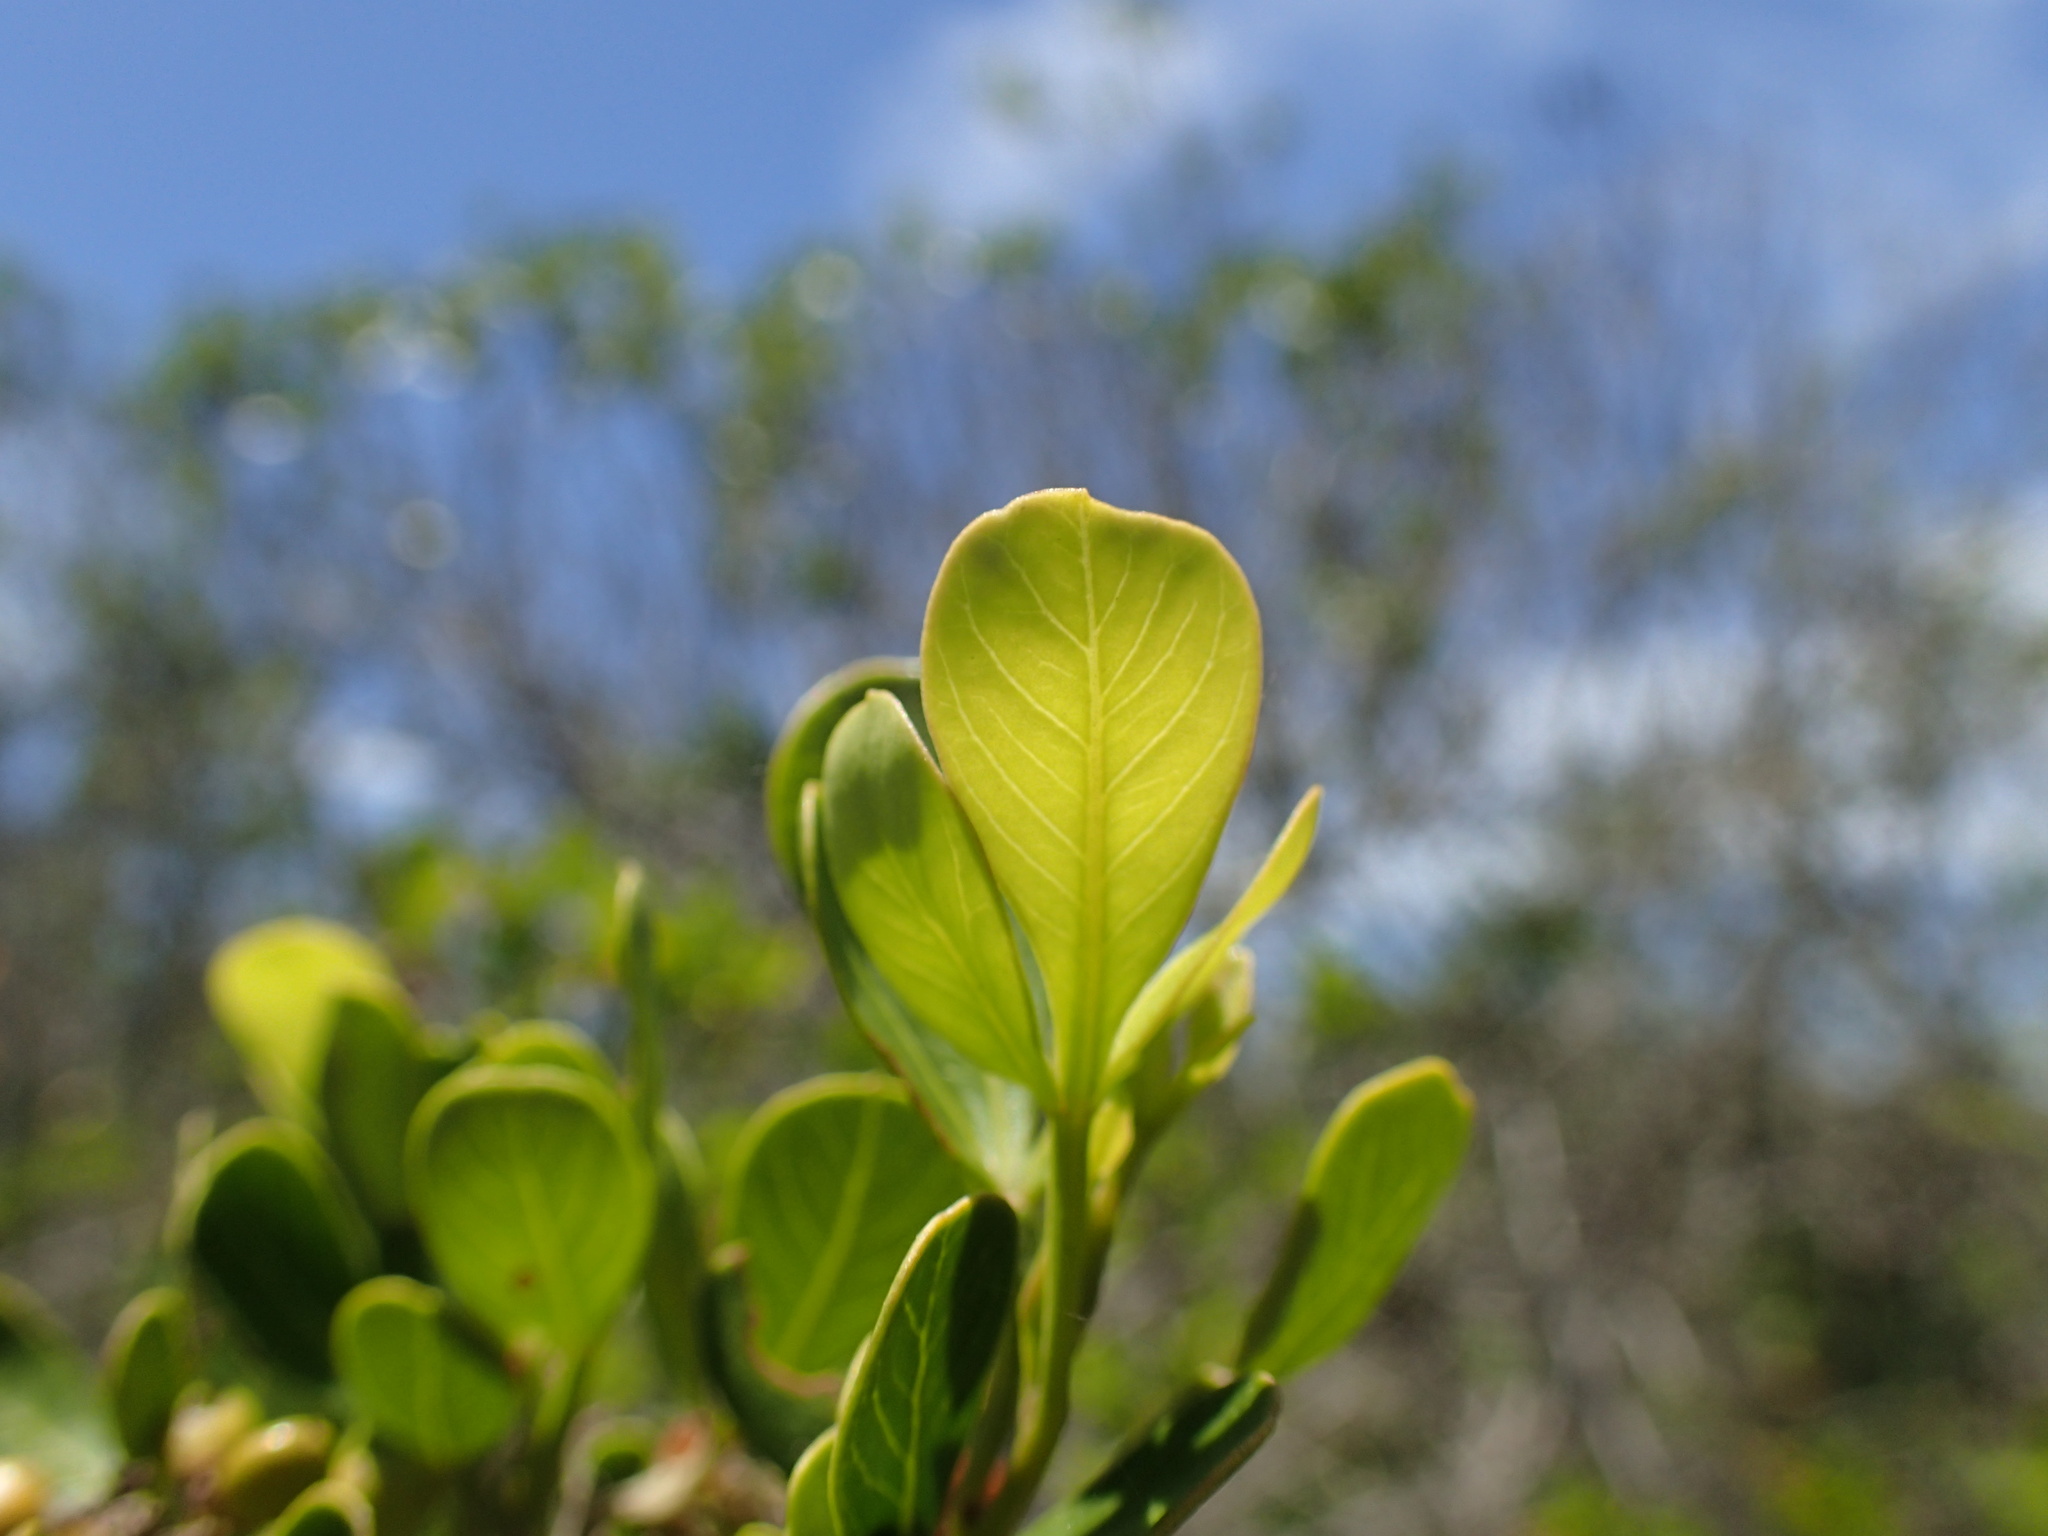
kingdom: Plantae
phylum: Tracheophyta
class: Magnoliopsida
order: Sapindales
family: Anacardiaceae
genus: Searsia
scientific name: Searsia lucida
